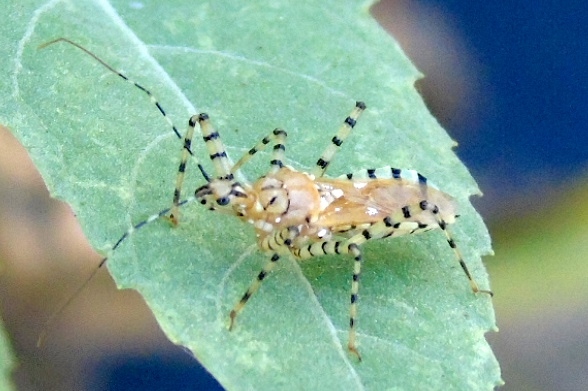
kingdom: Animalia
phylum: Arthropoda
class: Insecta
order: Hemiptera
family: Reduviidae
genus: Pselliopus
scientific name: Pselliopus
